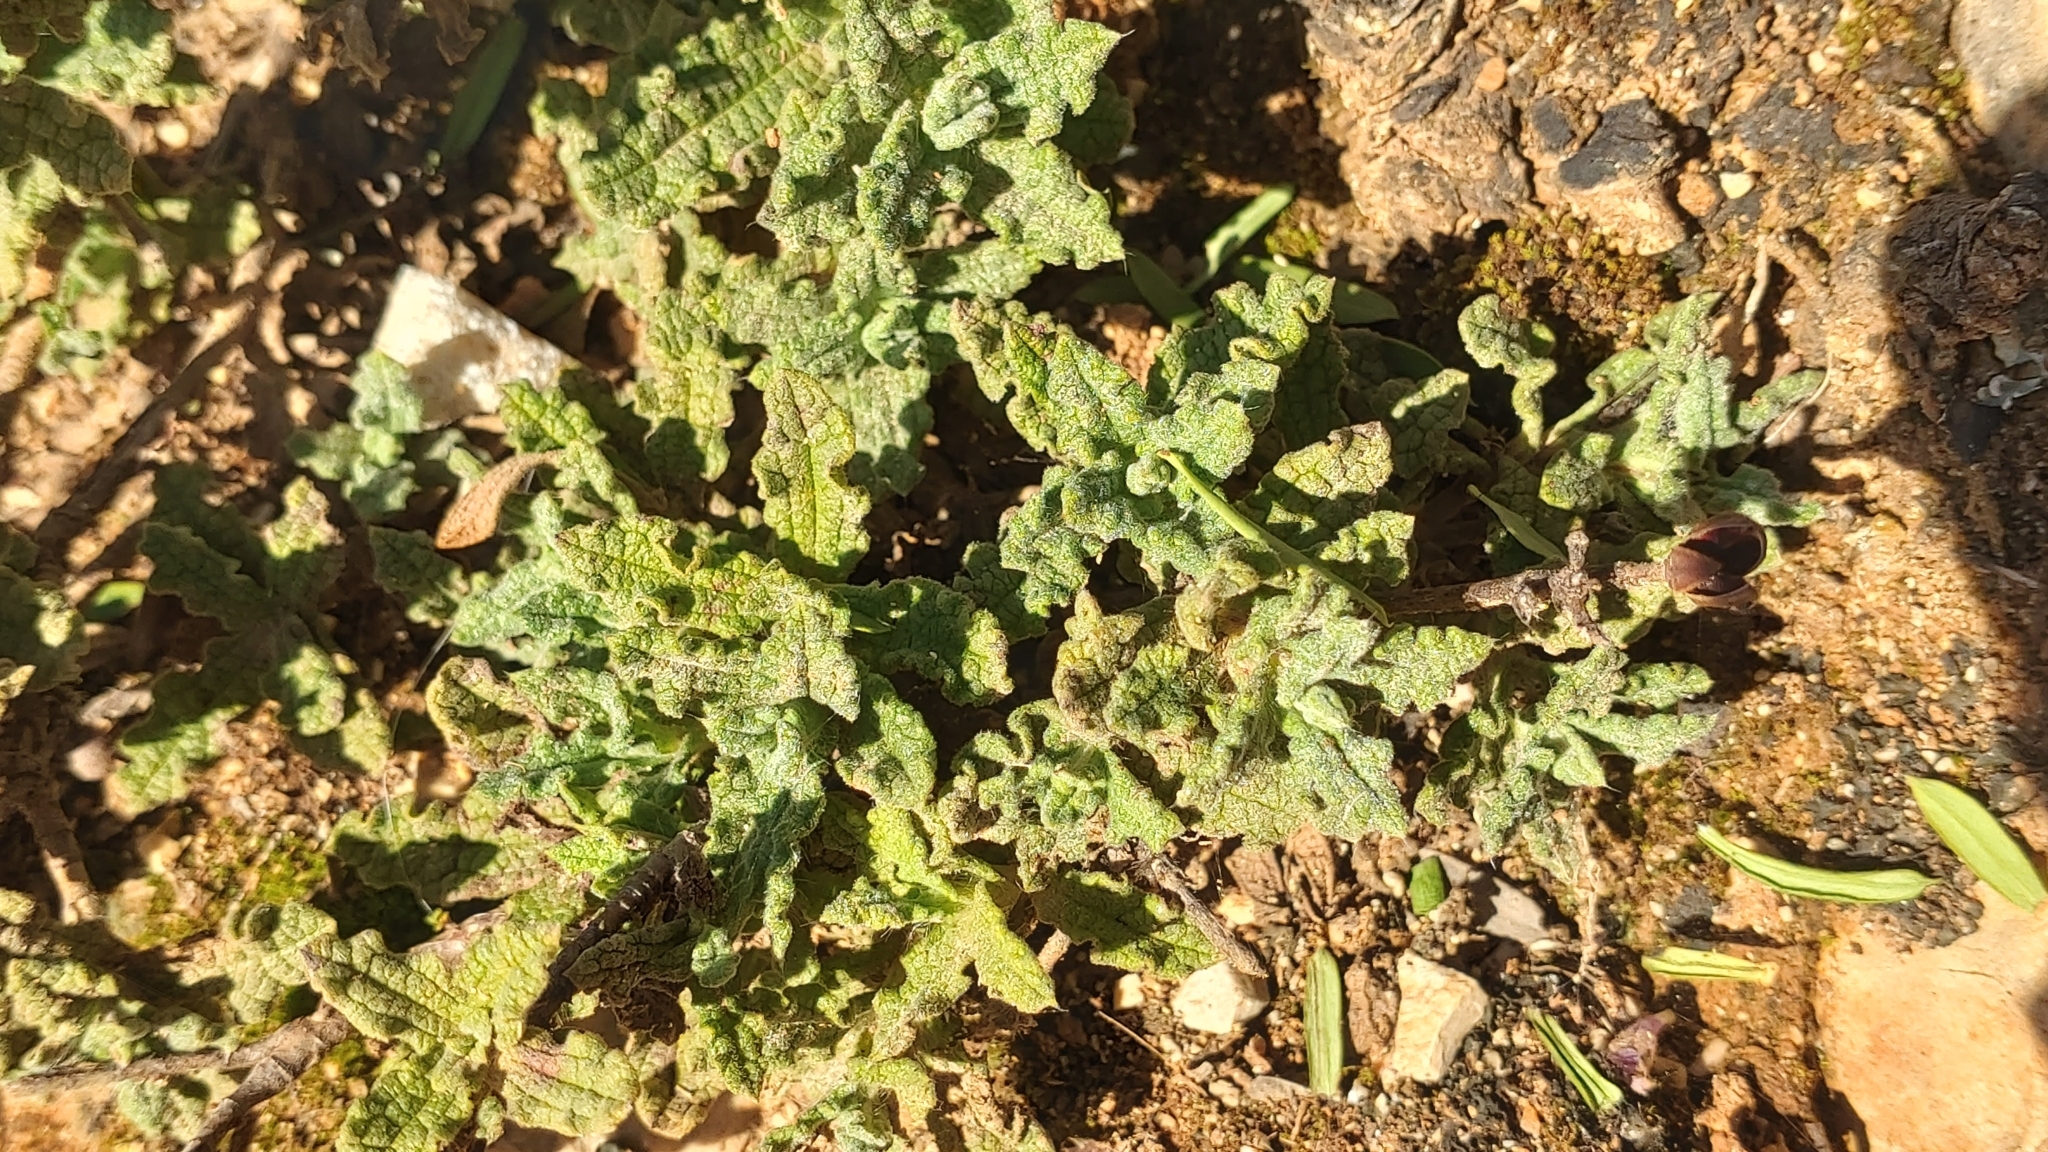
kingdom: Plantae
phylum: Tracheophyta
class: Magnoliopsida
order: Malvales
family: Cistaceae
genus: Cistus
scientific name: Cistus crispus
